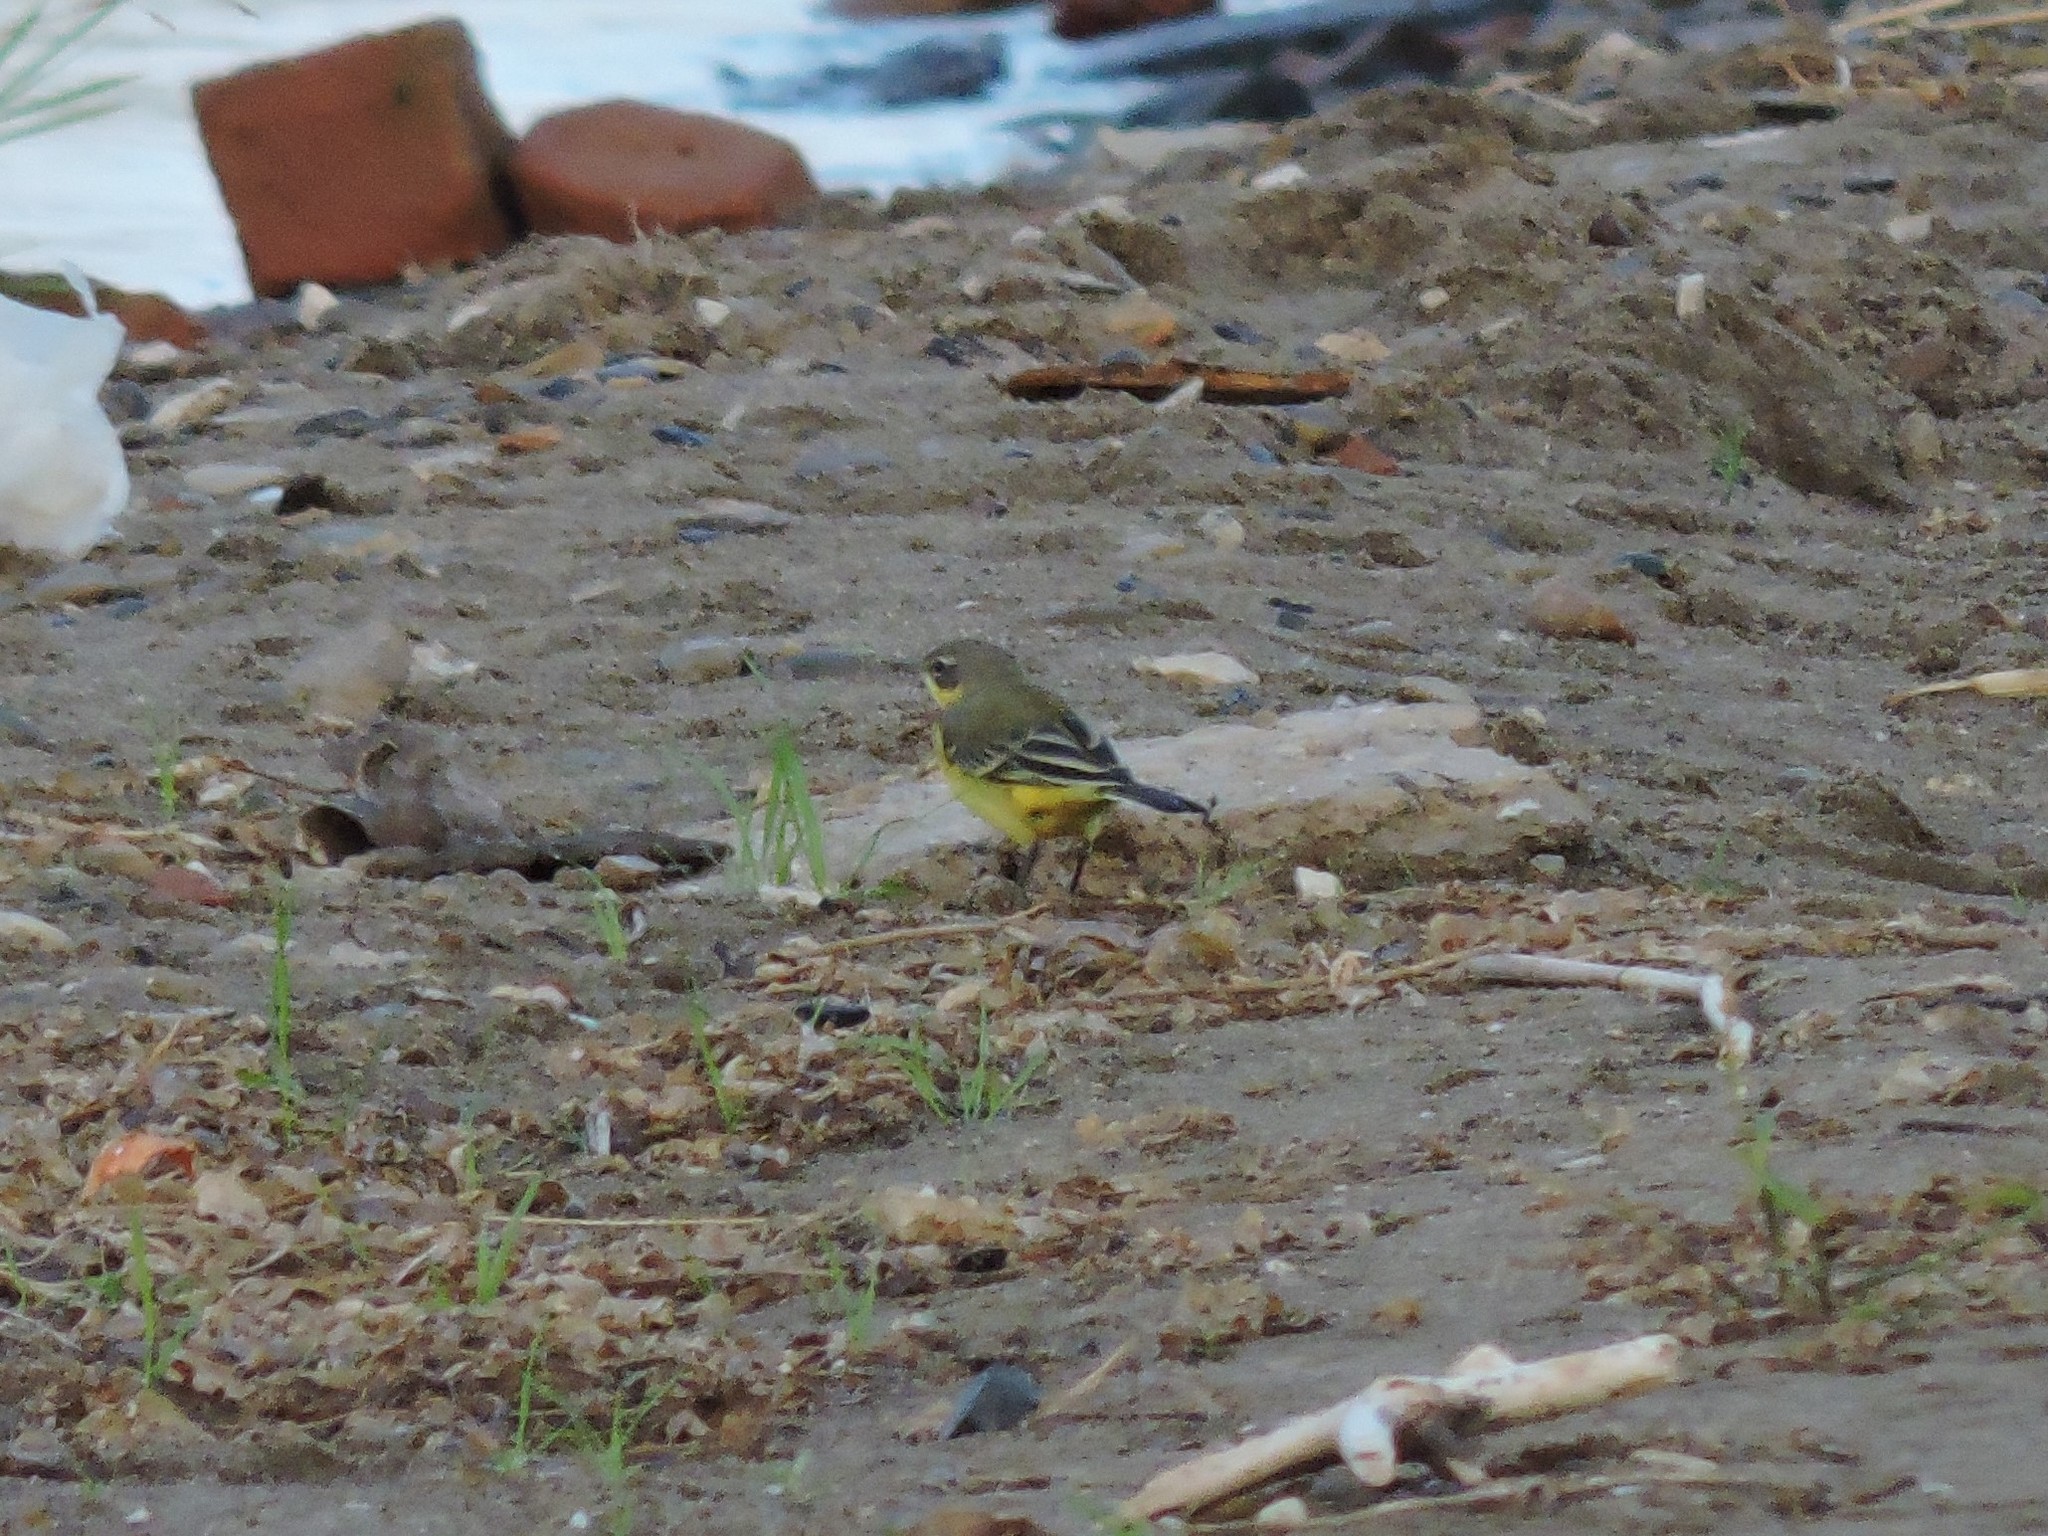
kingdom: Animalia
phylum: Chordata
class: Aves
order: Passeriformes
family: Motacillidae
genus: Motacilla
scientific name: Motacilla flava
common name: Western yellow wagtail
